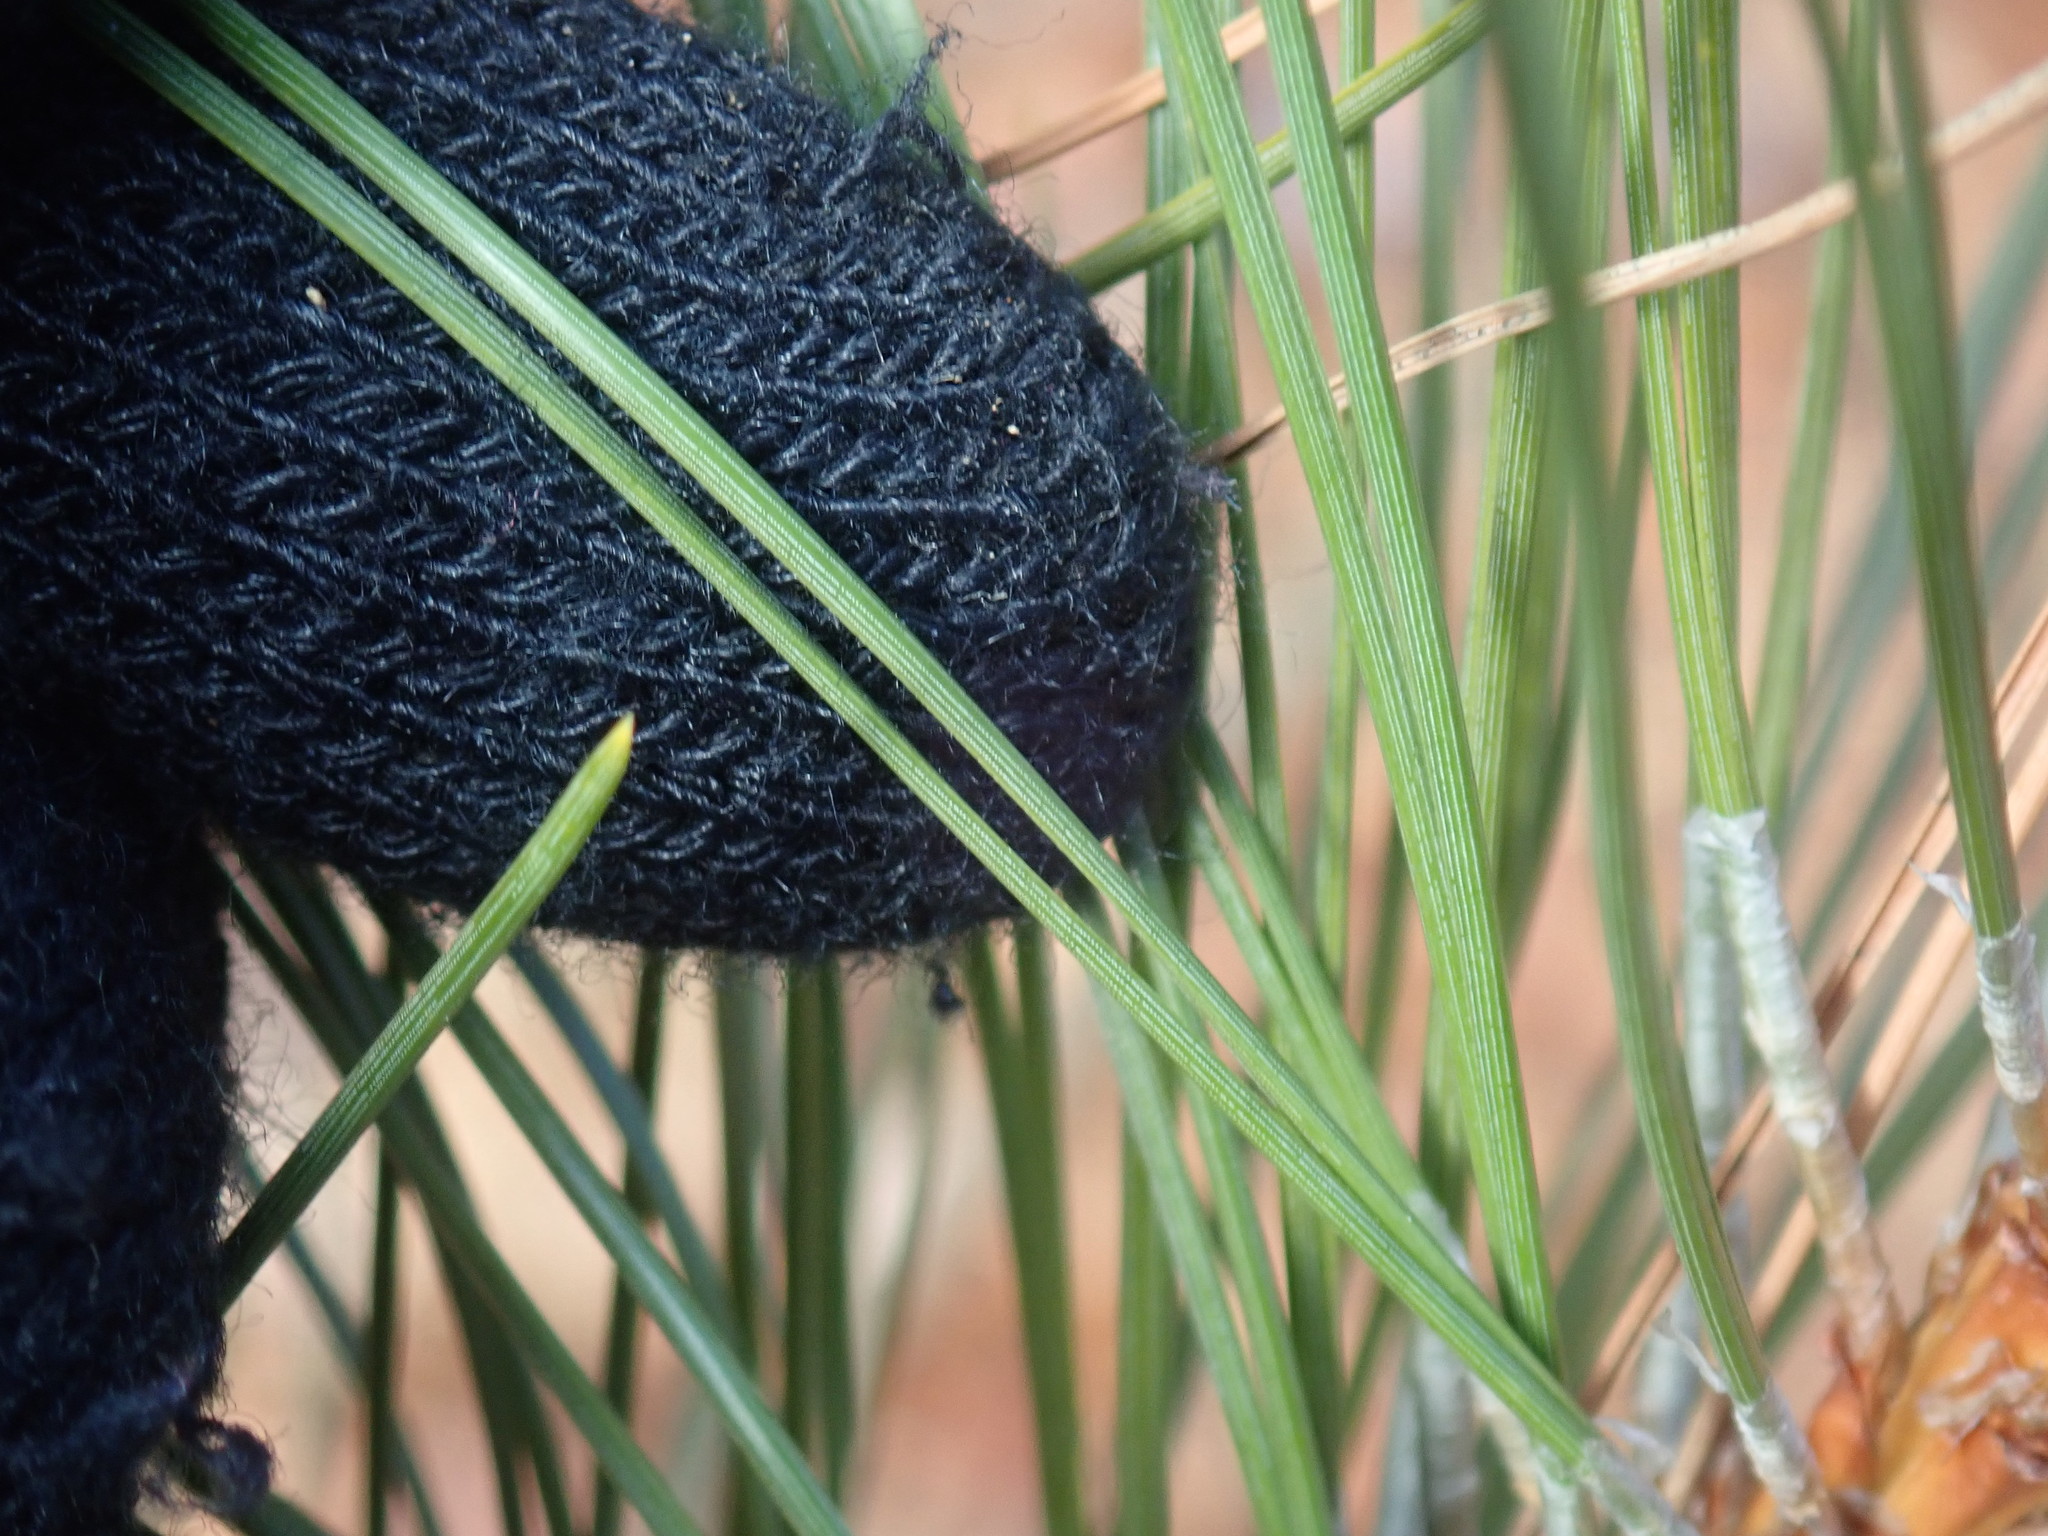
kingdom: Plantae
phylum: Tracheophyta
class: Pinopsida
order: Pinales
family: Pinaceae
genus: Pinus
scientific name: Pinus resinosa
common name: Norway pine
